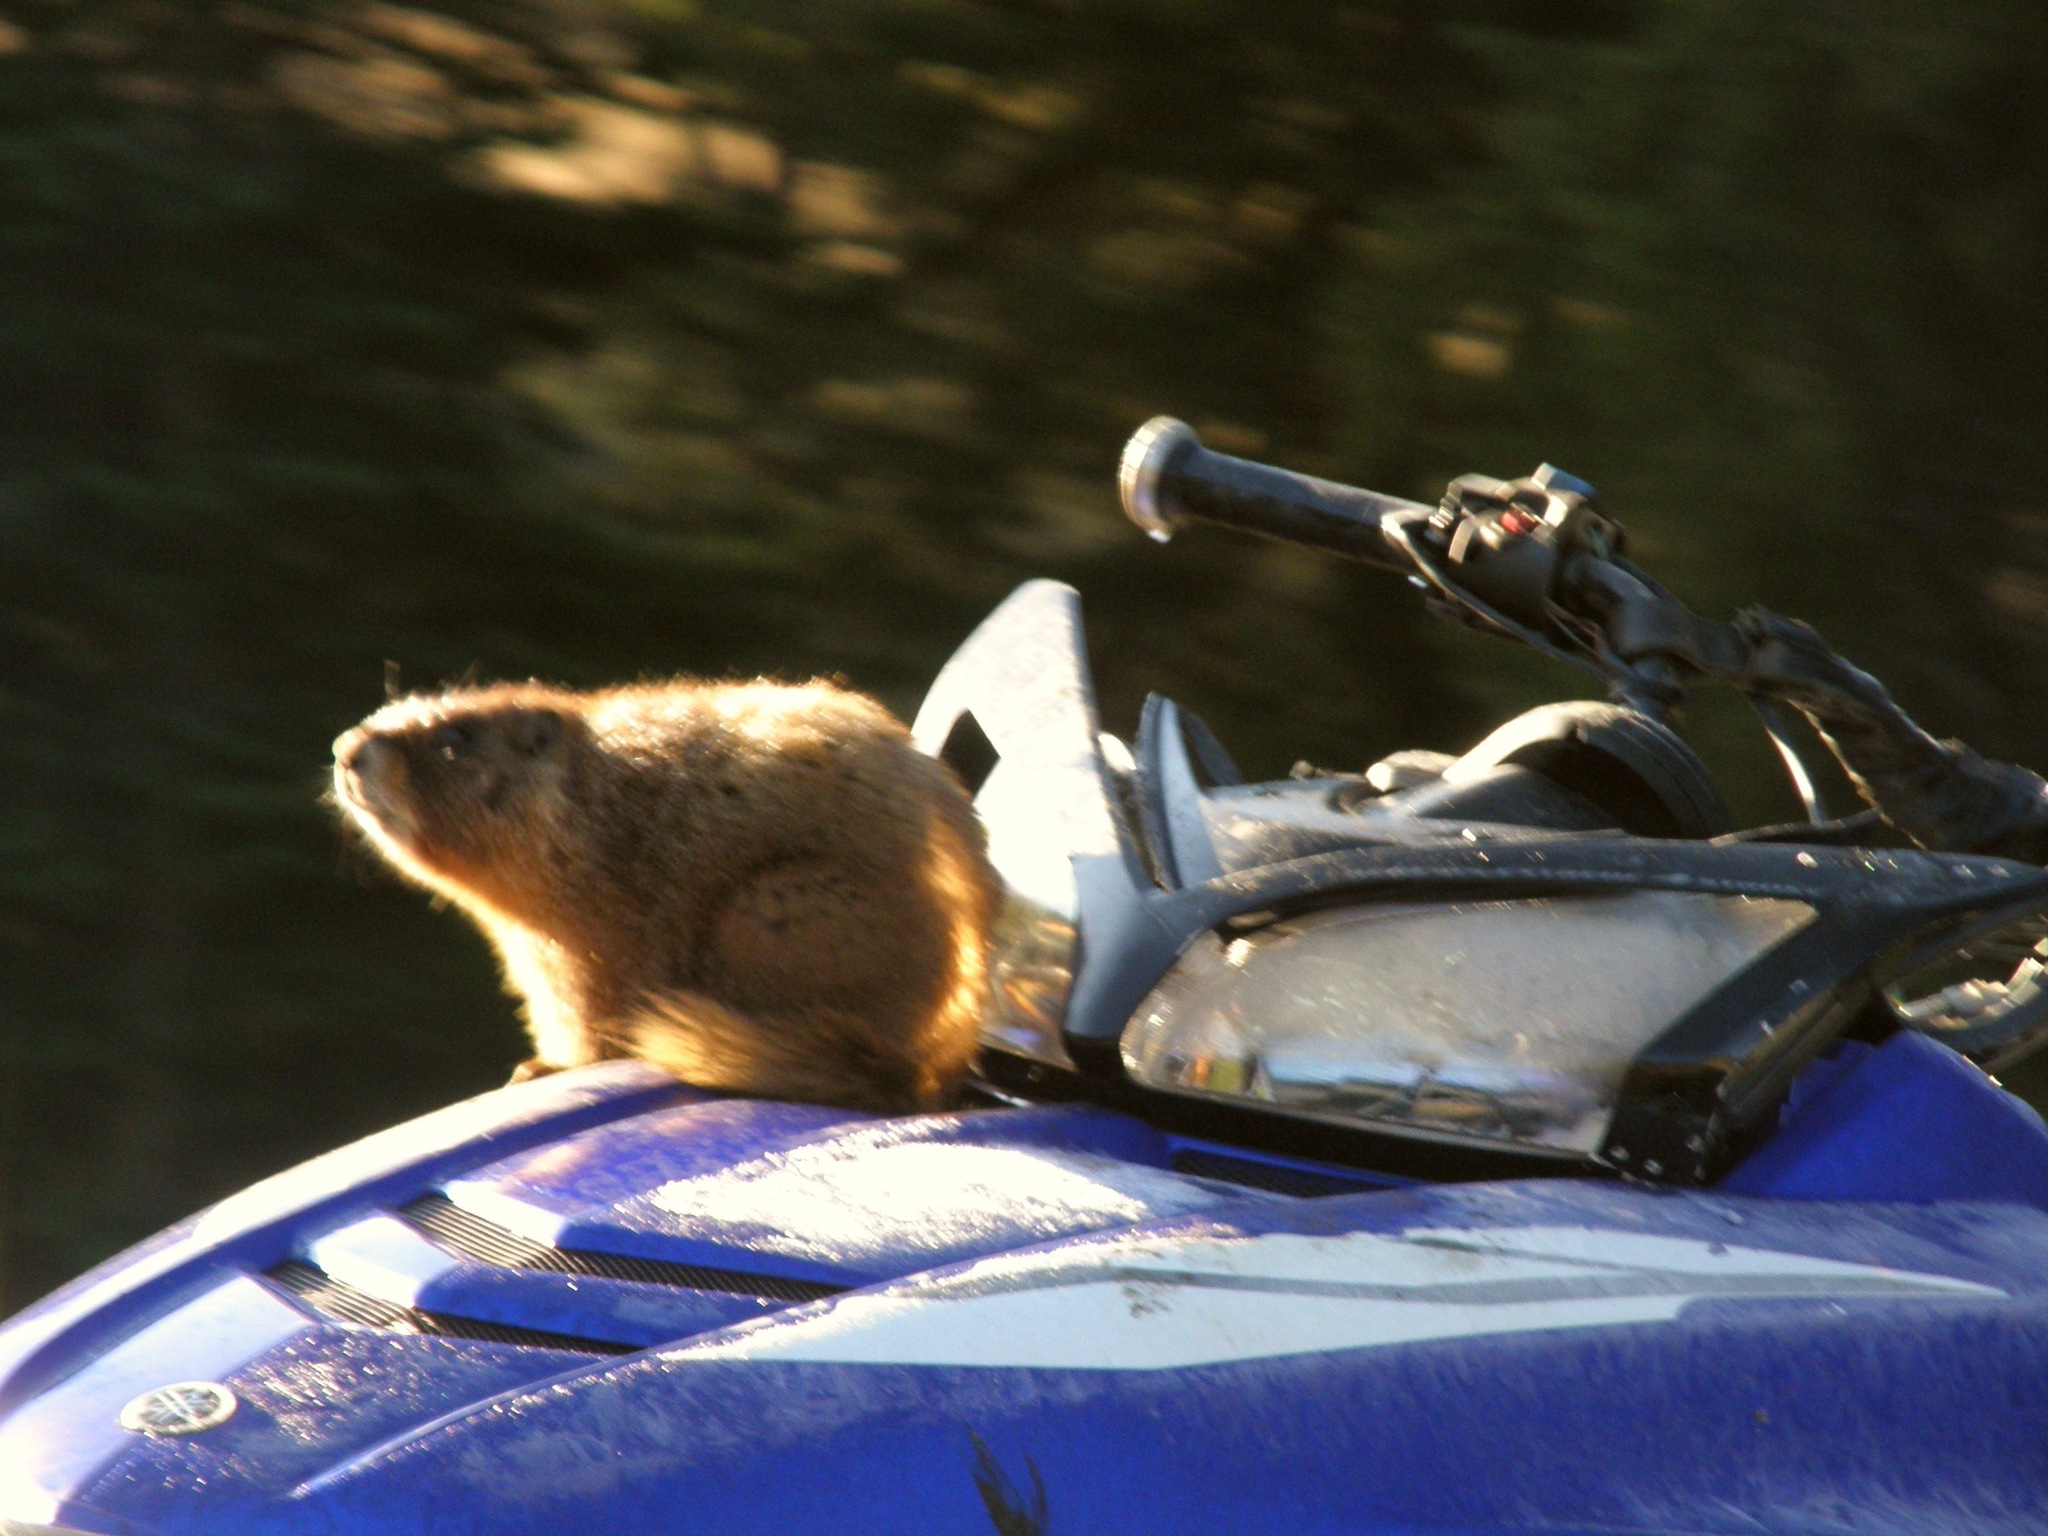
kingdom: Animalia
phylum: Chordata
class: Mammalia
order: Rodentia
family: Sciuridae
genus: Marmota
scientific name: Marmota flaviventris
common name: Yellow-bellied marmot
